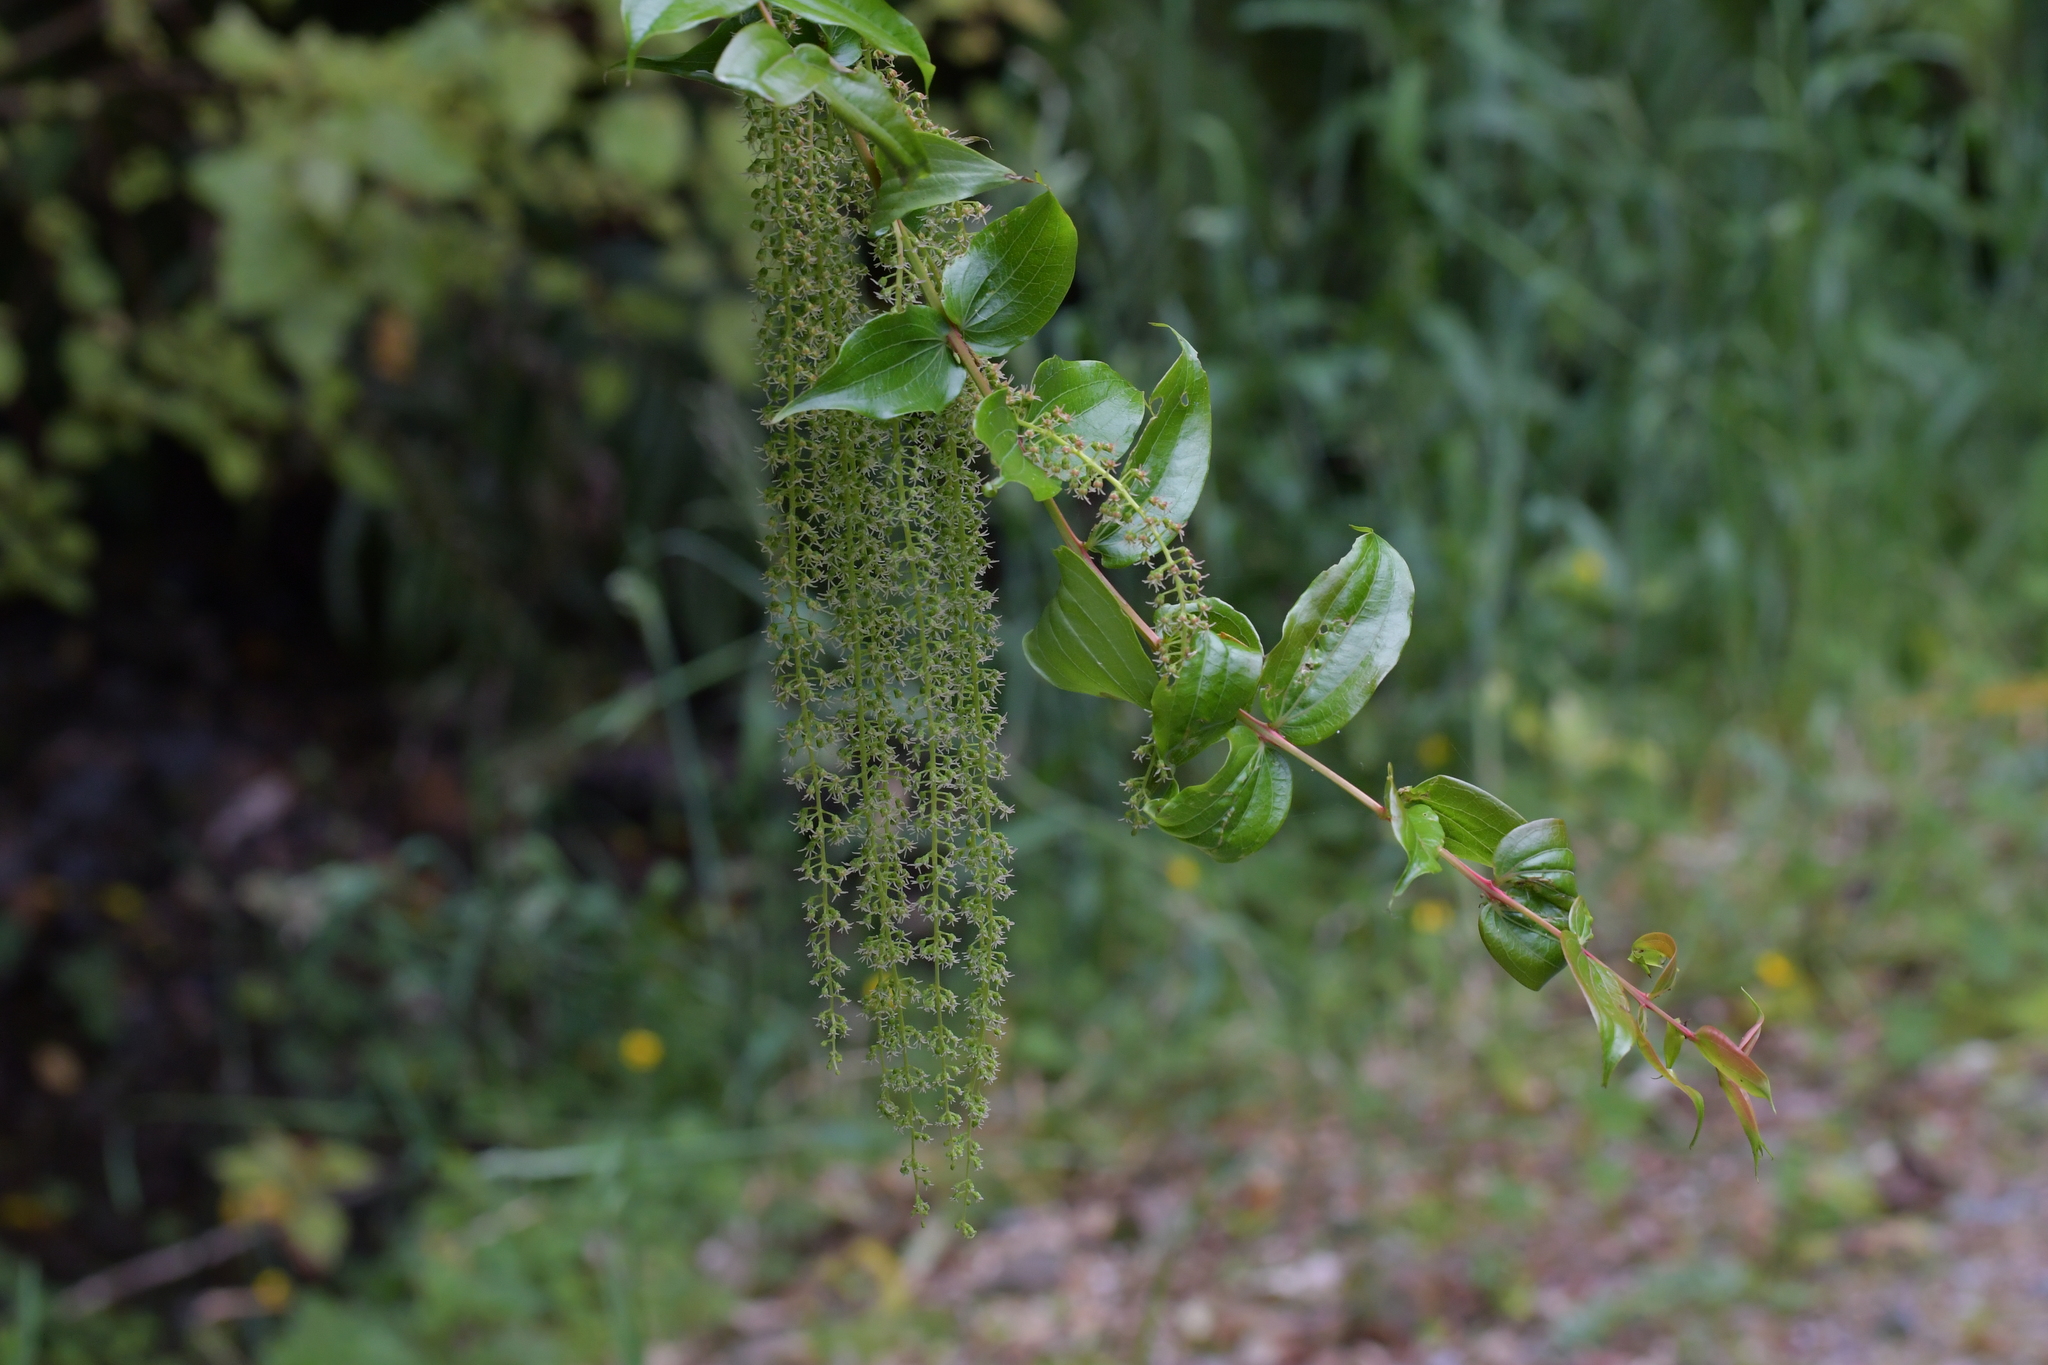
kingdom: Plantae
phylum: Tracheophyta
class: Magnoliopsida
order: Cucurbitales
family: Coriariaceae
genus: Coriaria
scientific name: Coriaria arborea
